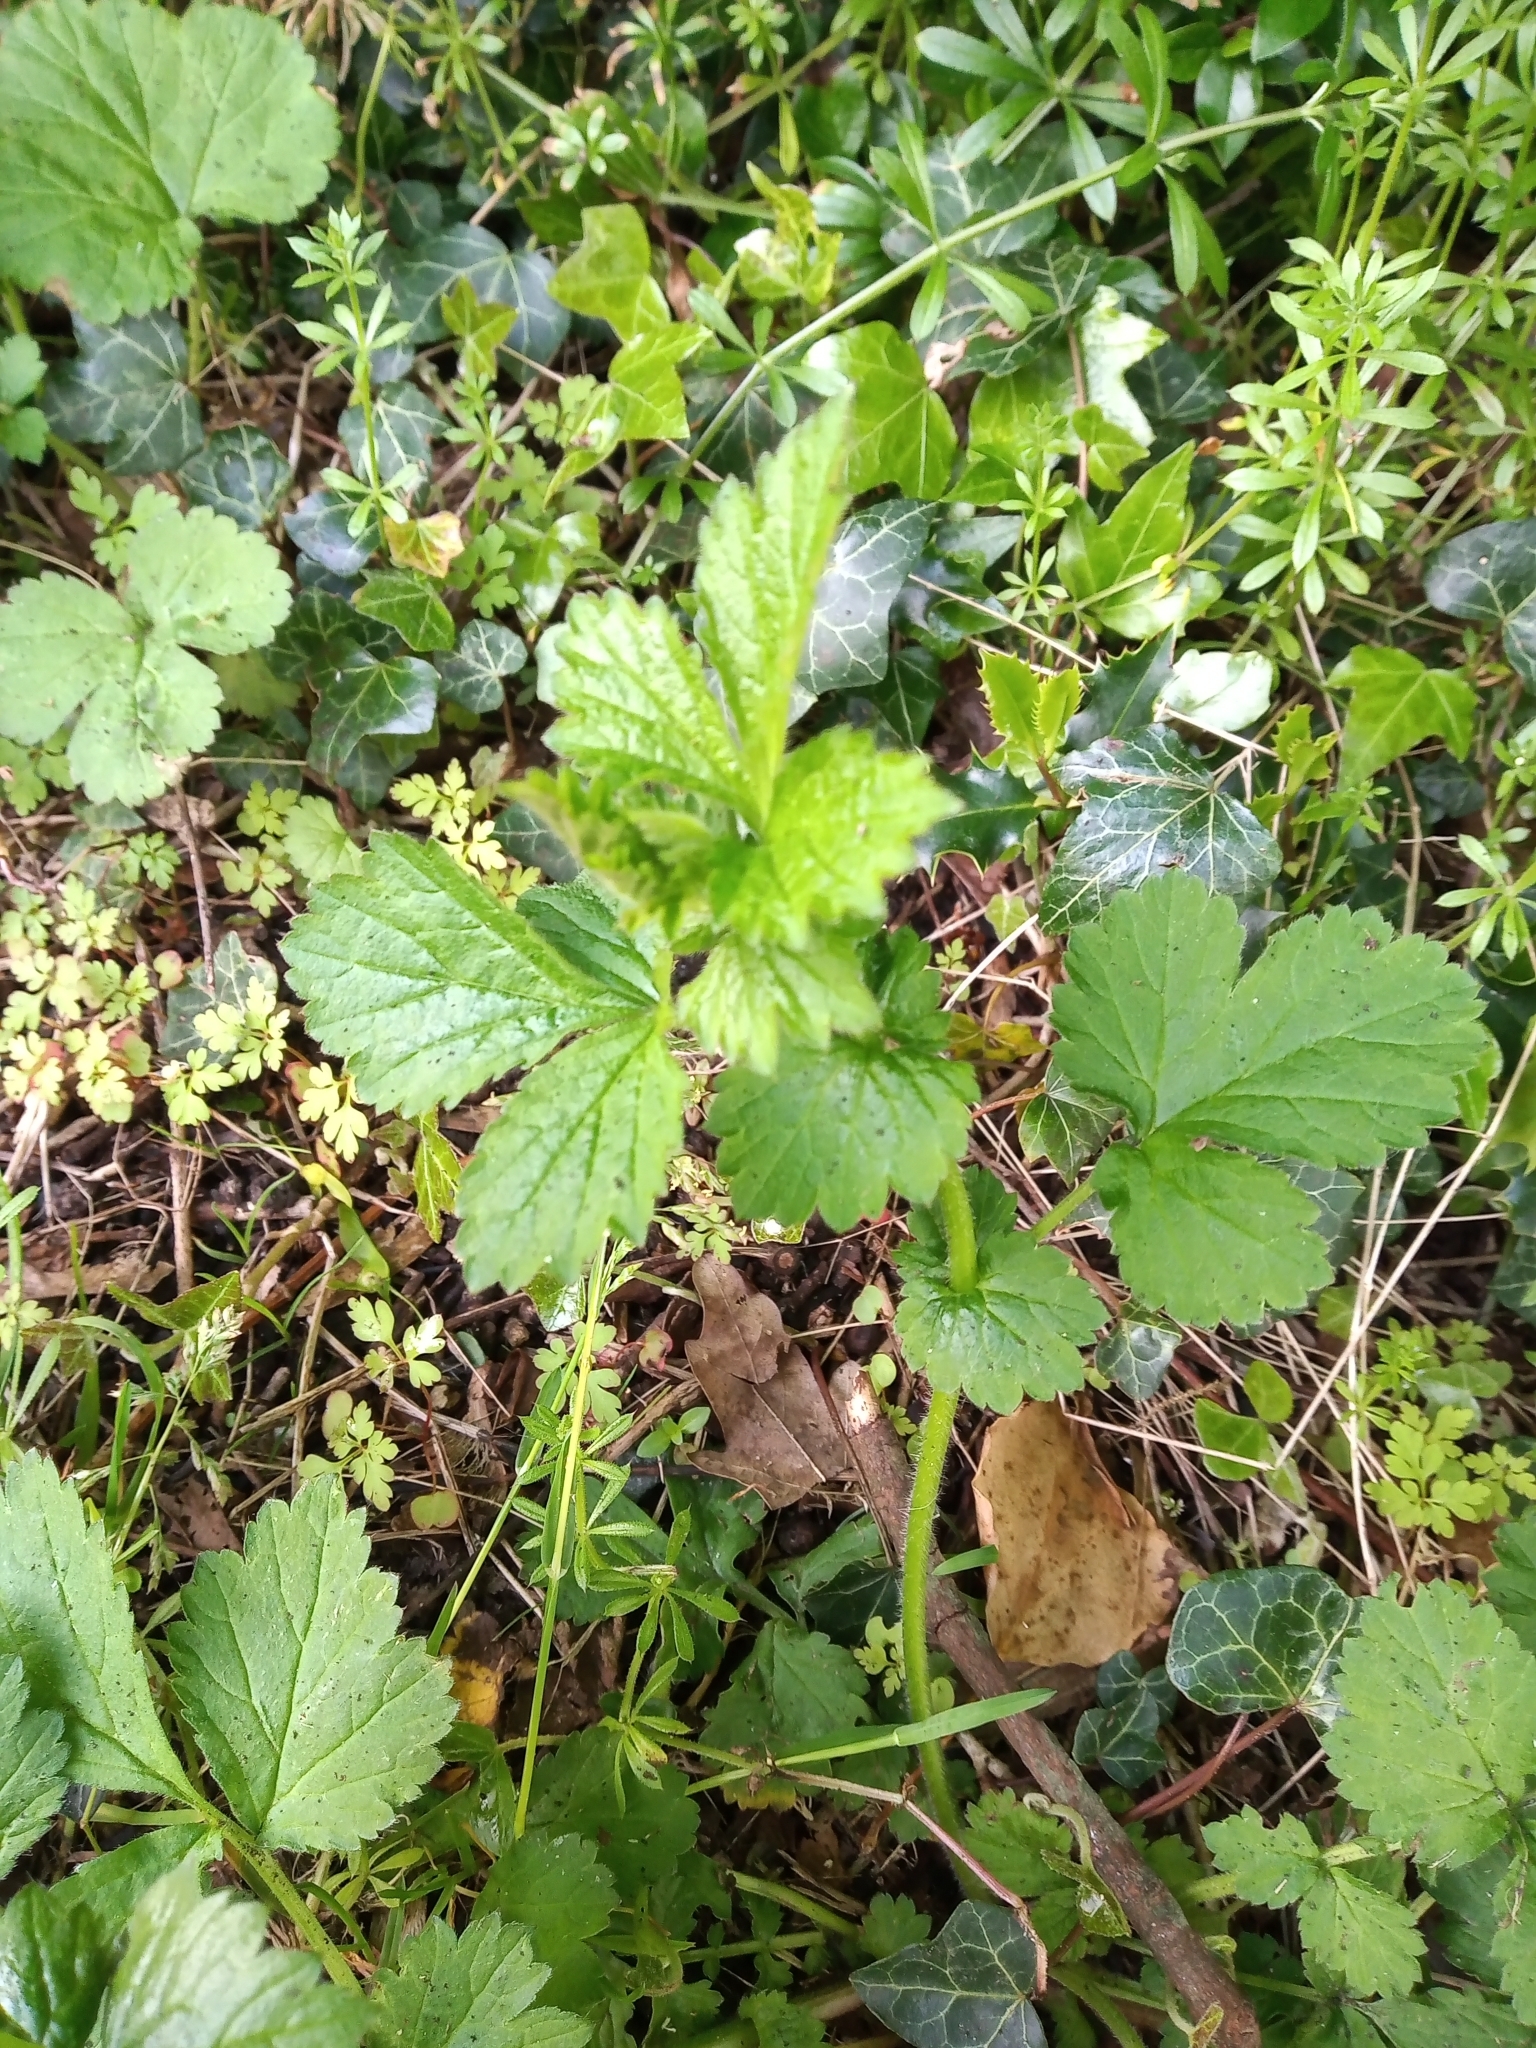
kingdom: Plantae
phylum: Tracheophyta
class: Magnoliopsida
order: Rosales
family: Rosaceae
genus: Geum
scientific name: Geum urbanum
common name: Wood avens
